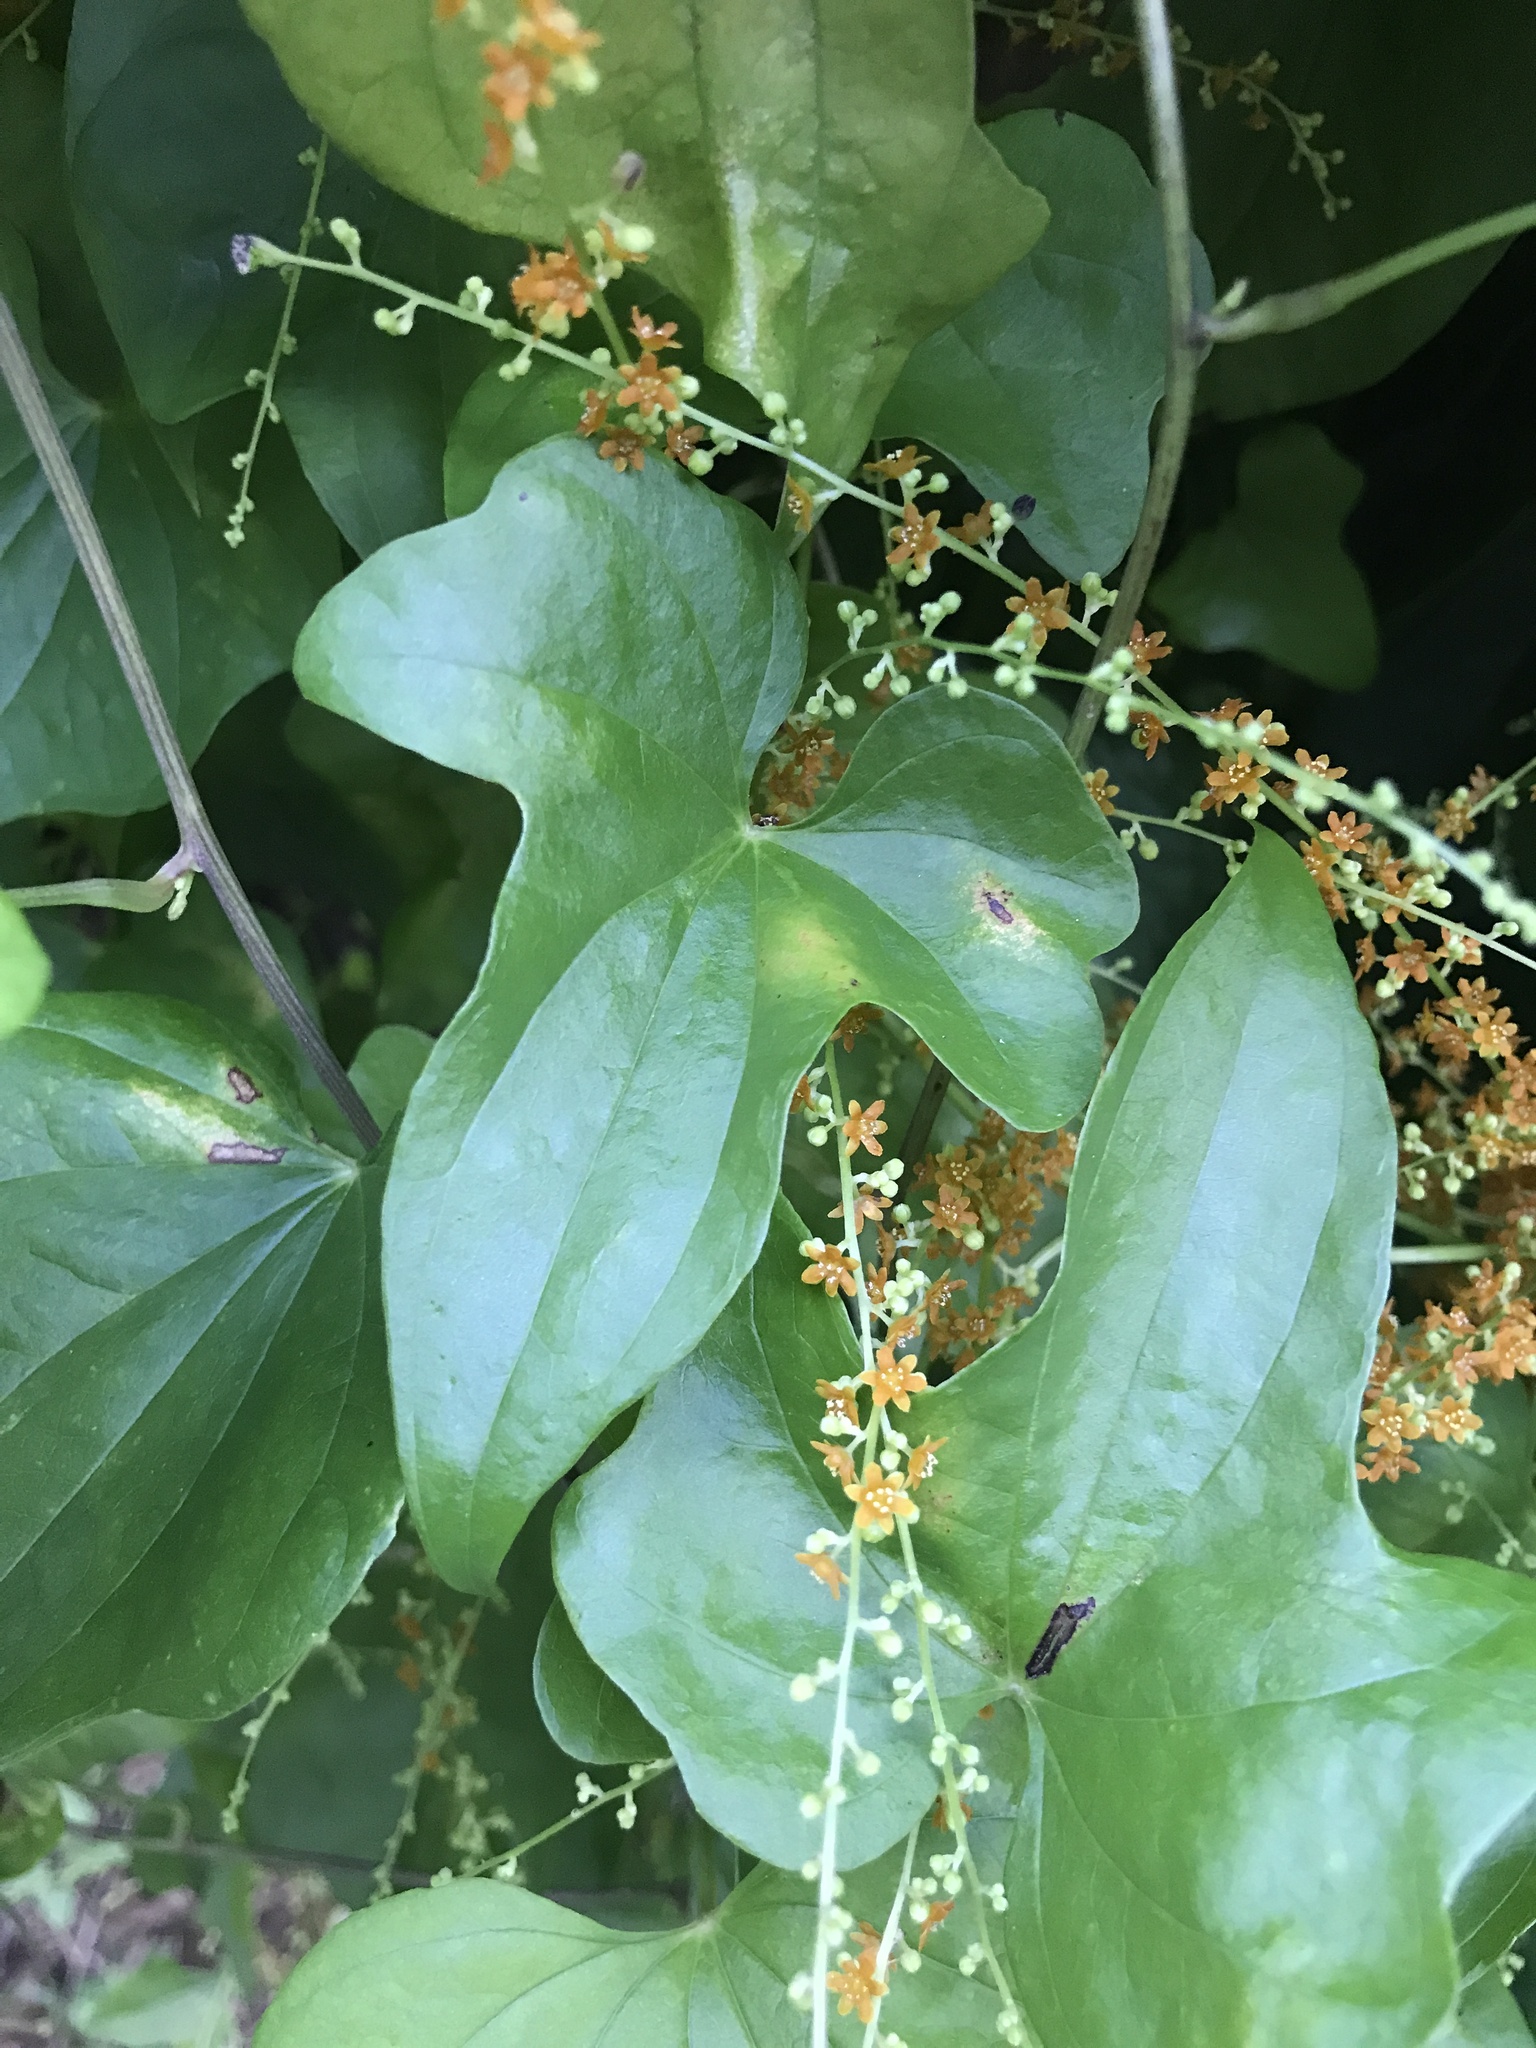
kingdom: Plantae
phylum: Tracheophyta
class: Liliopsida
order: Dioscoreales
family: Dioscoreaceae
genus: Dioscorea
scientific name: Dioscorea quinquelobata
